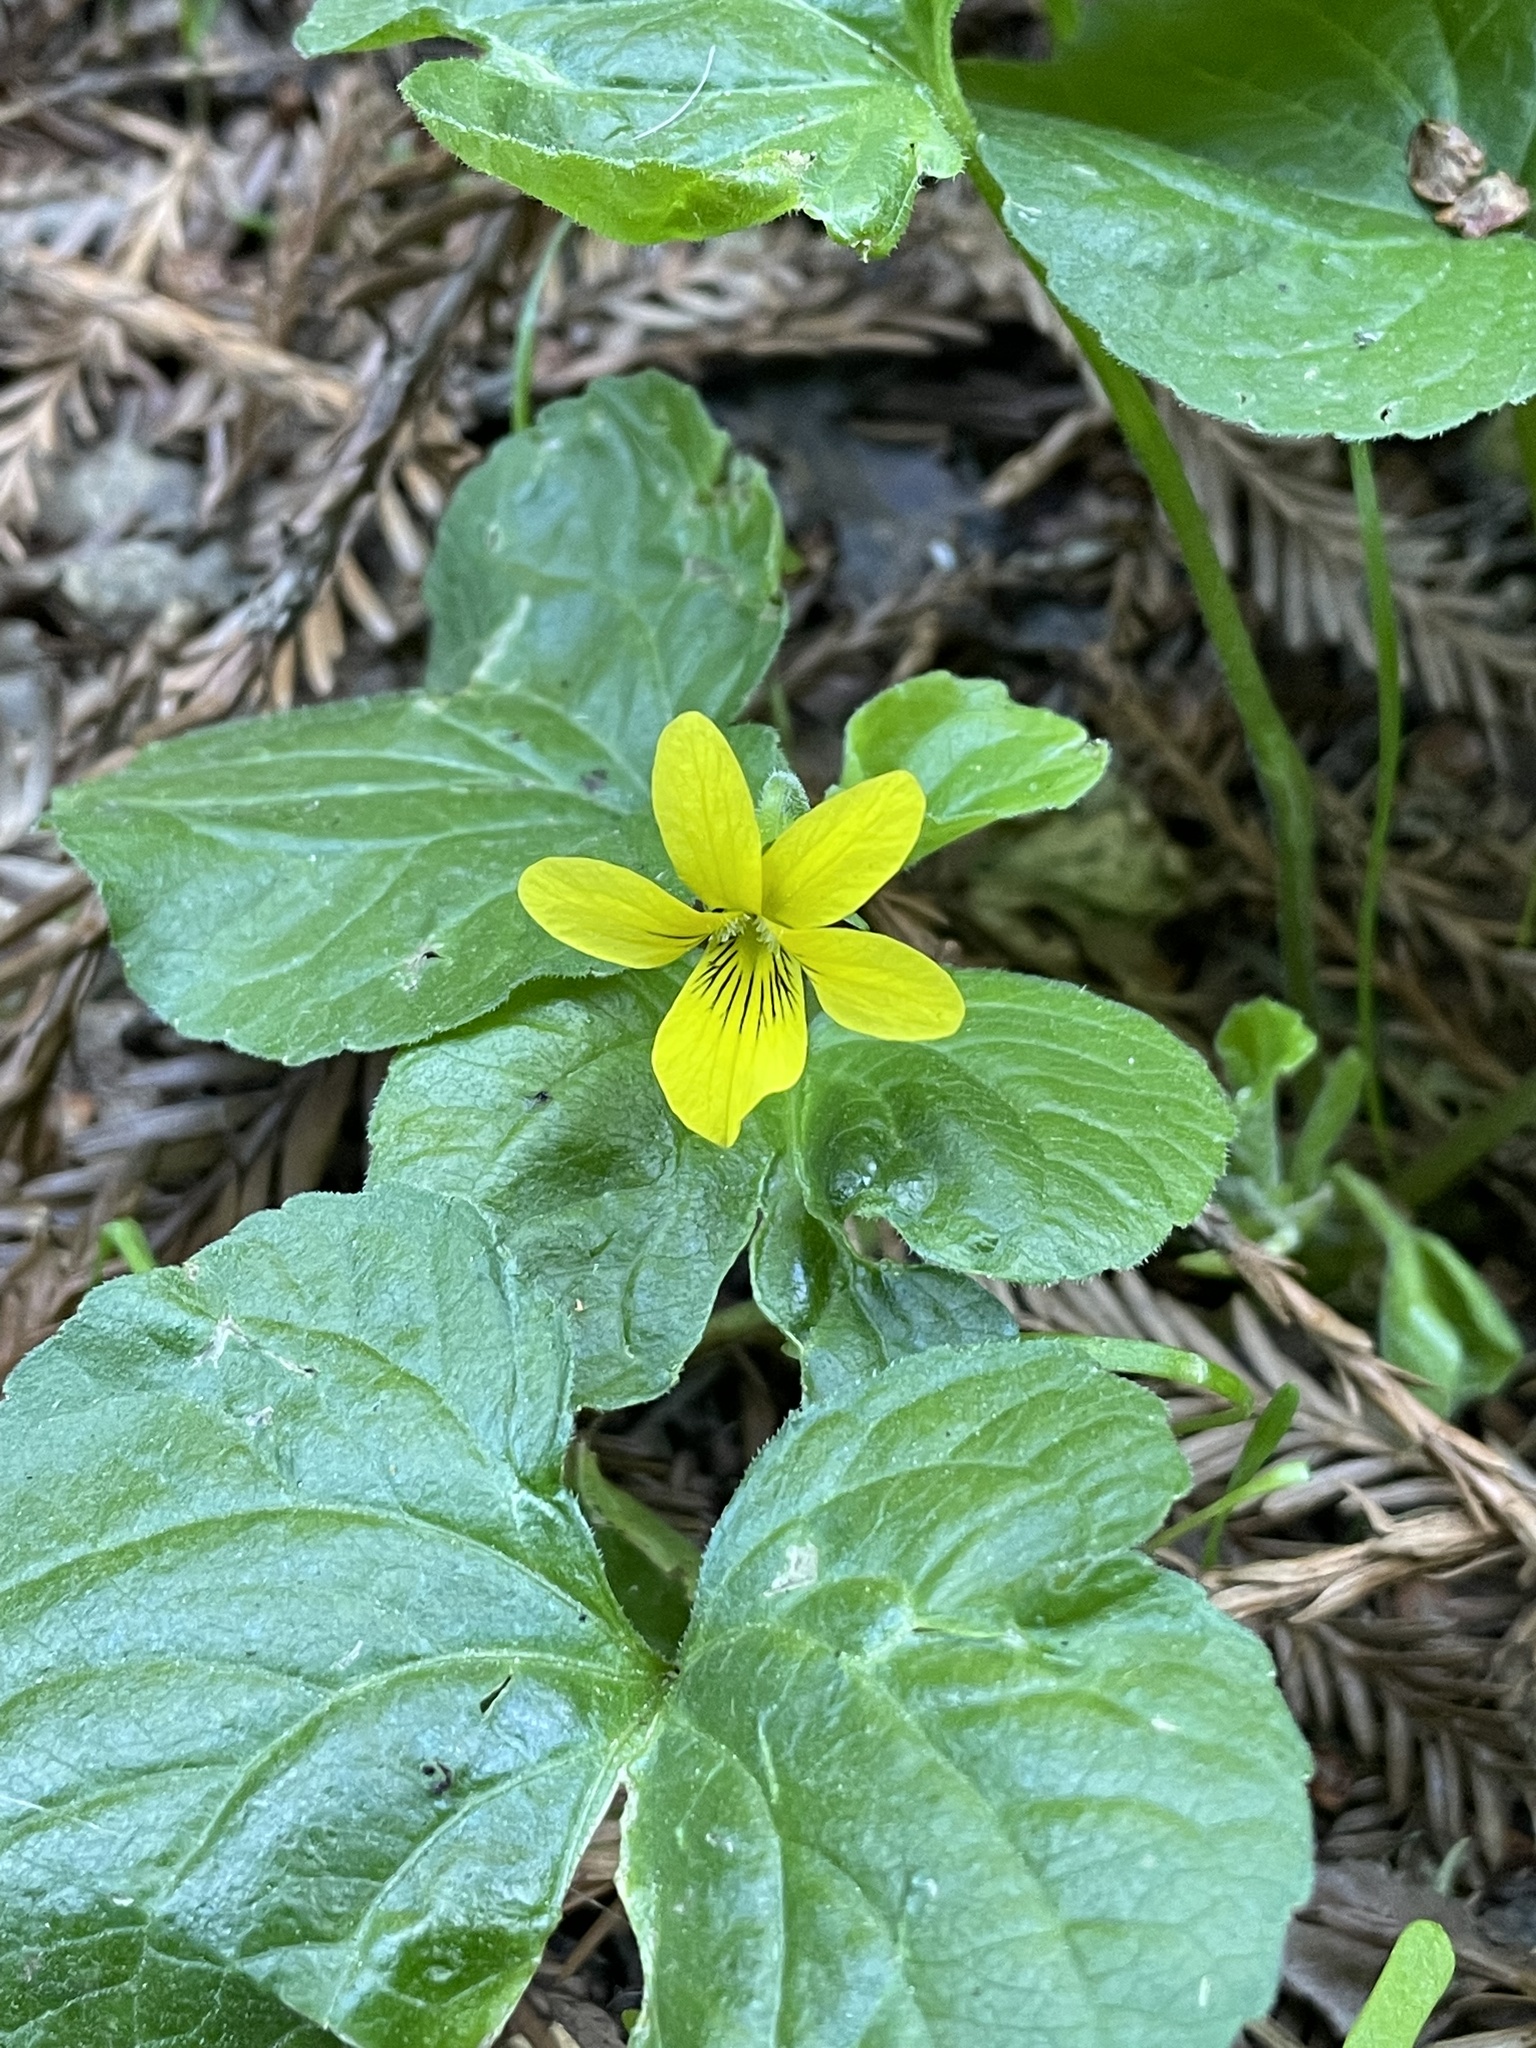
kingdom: Plantae
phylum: Tracheophyta
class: Magnoliopsida
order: Malpighiales
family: Violaceae
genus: Viola
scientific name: Viola glabella
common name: Stream violet
